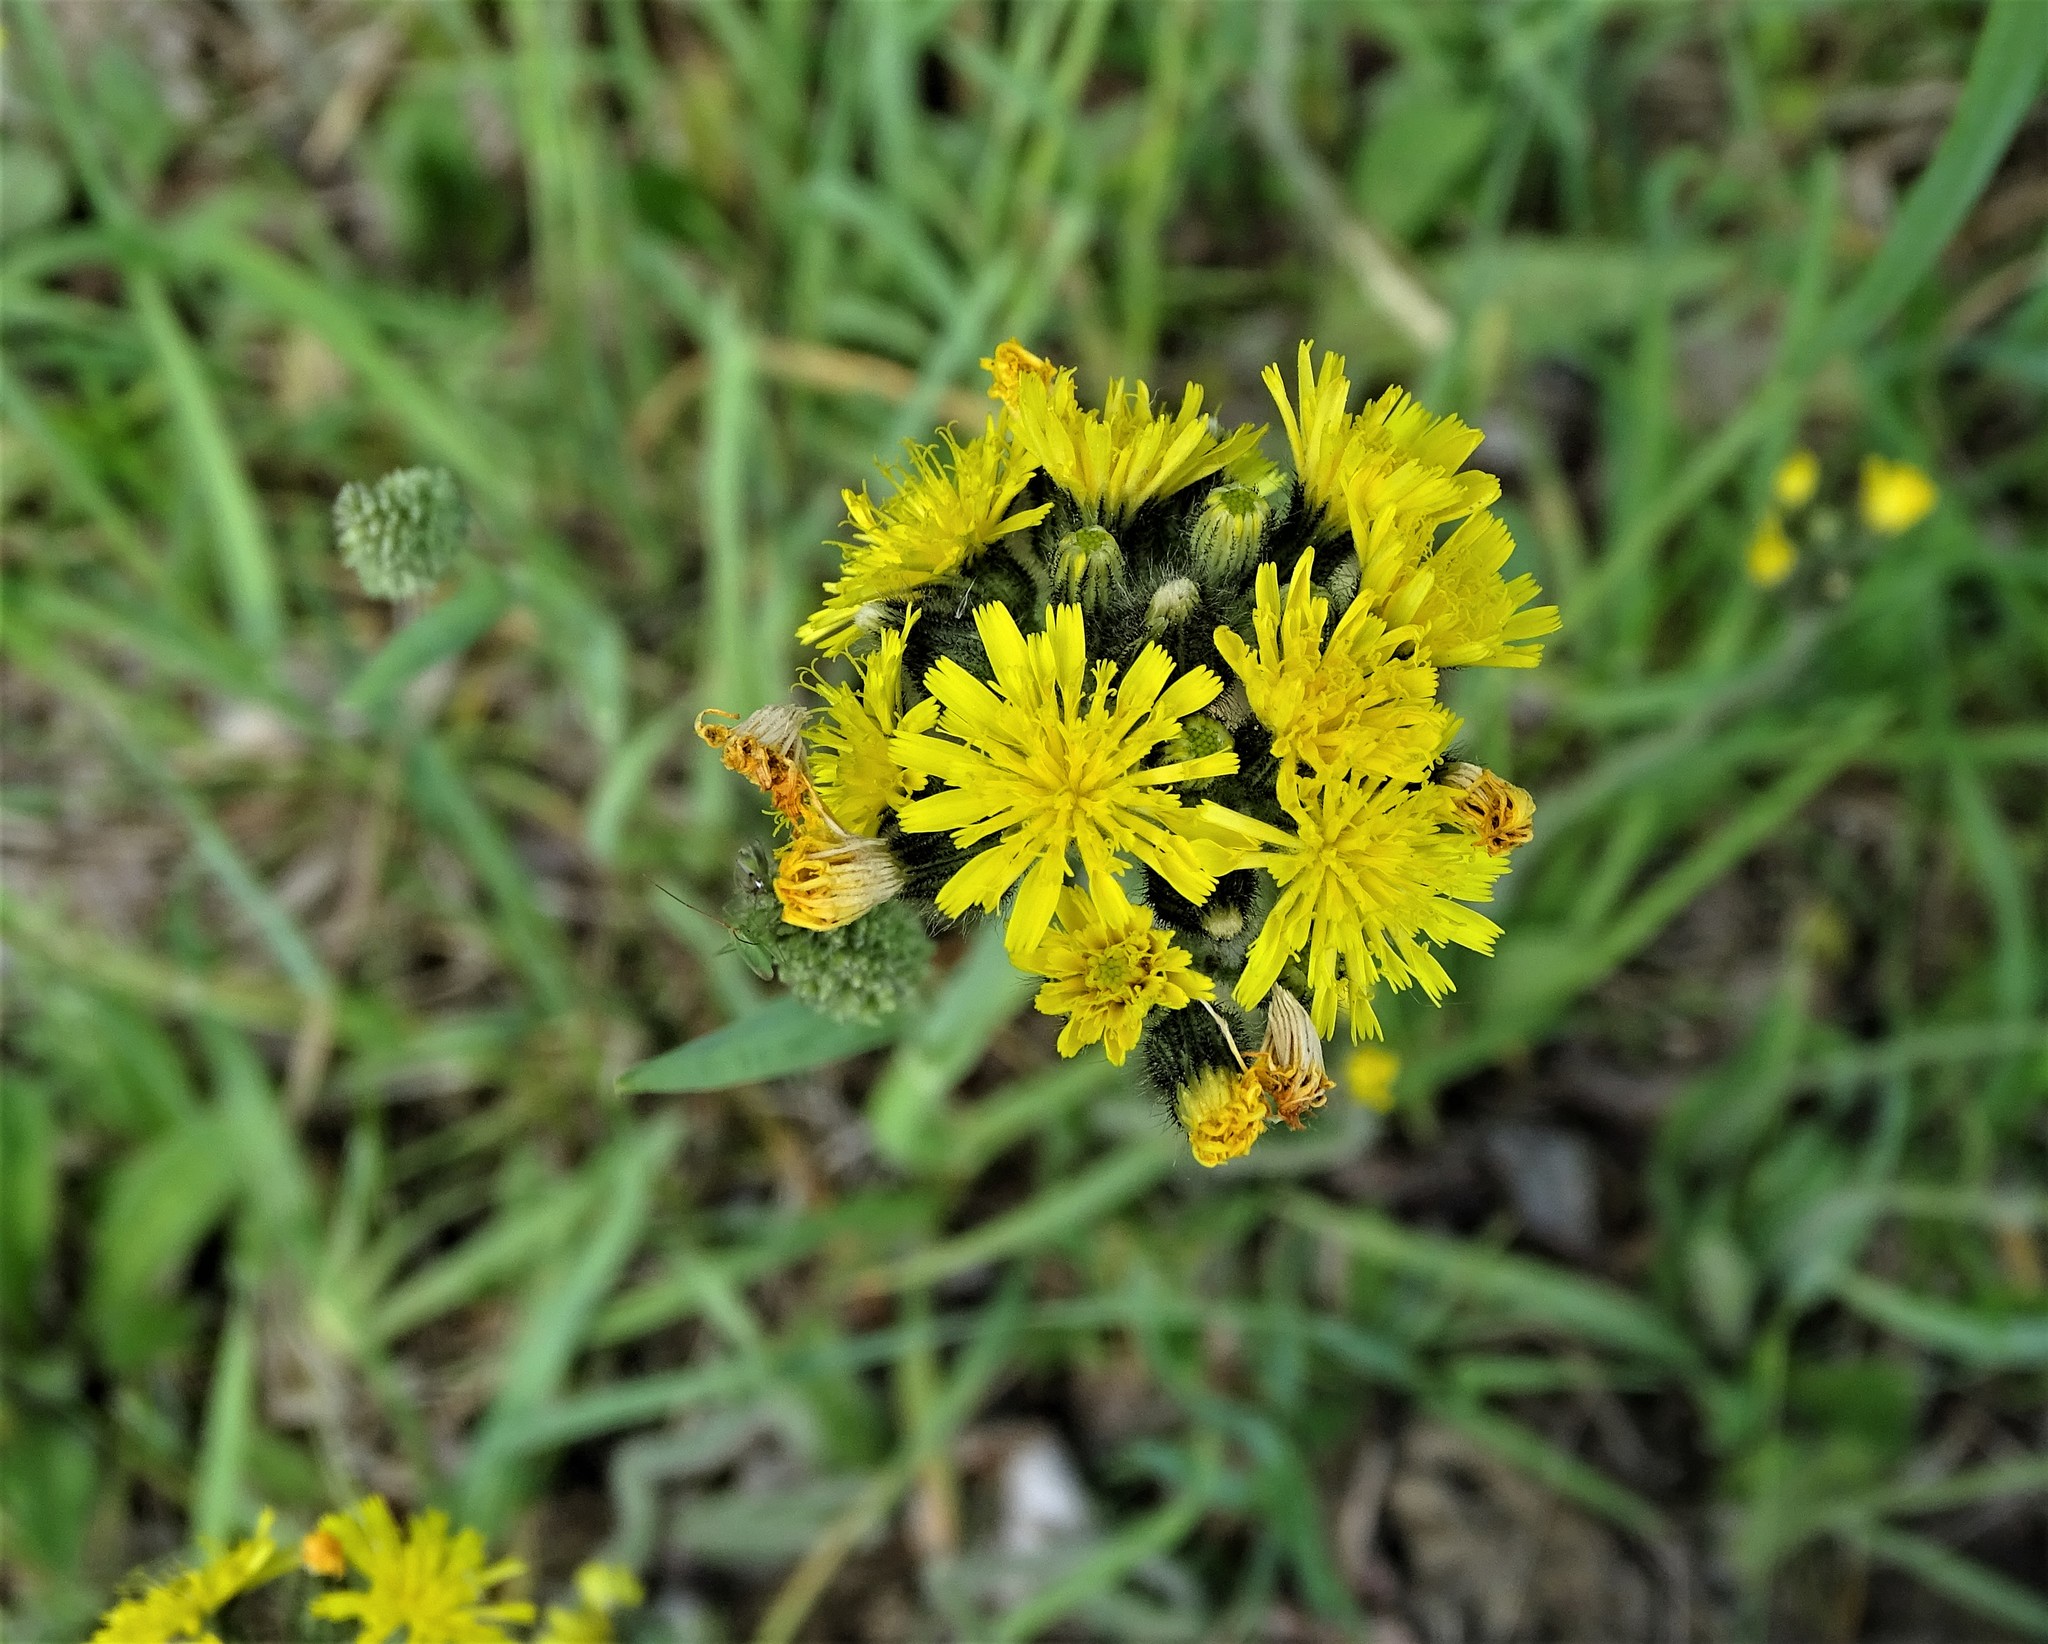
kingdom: Plantae
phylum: Tracheophyta
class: Magnoliopsida
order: Asterales
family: Asteraceae
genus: Pilosella
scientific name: Pilosella caespitosa
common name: Yellow fox-and-cubs
